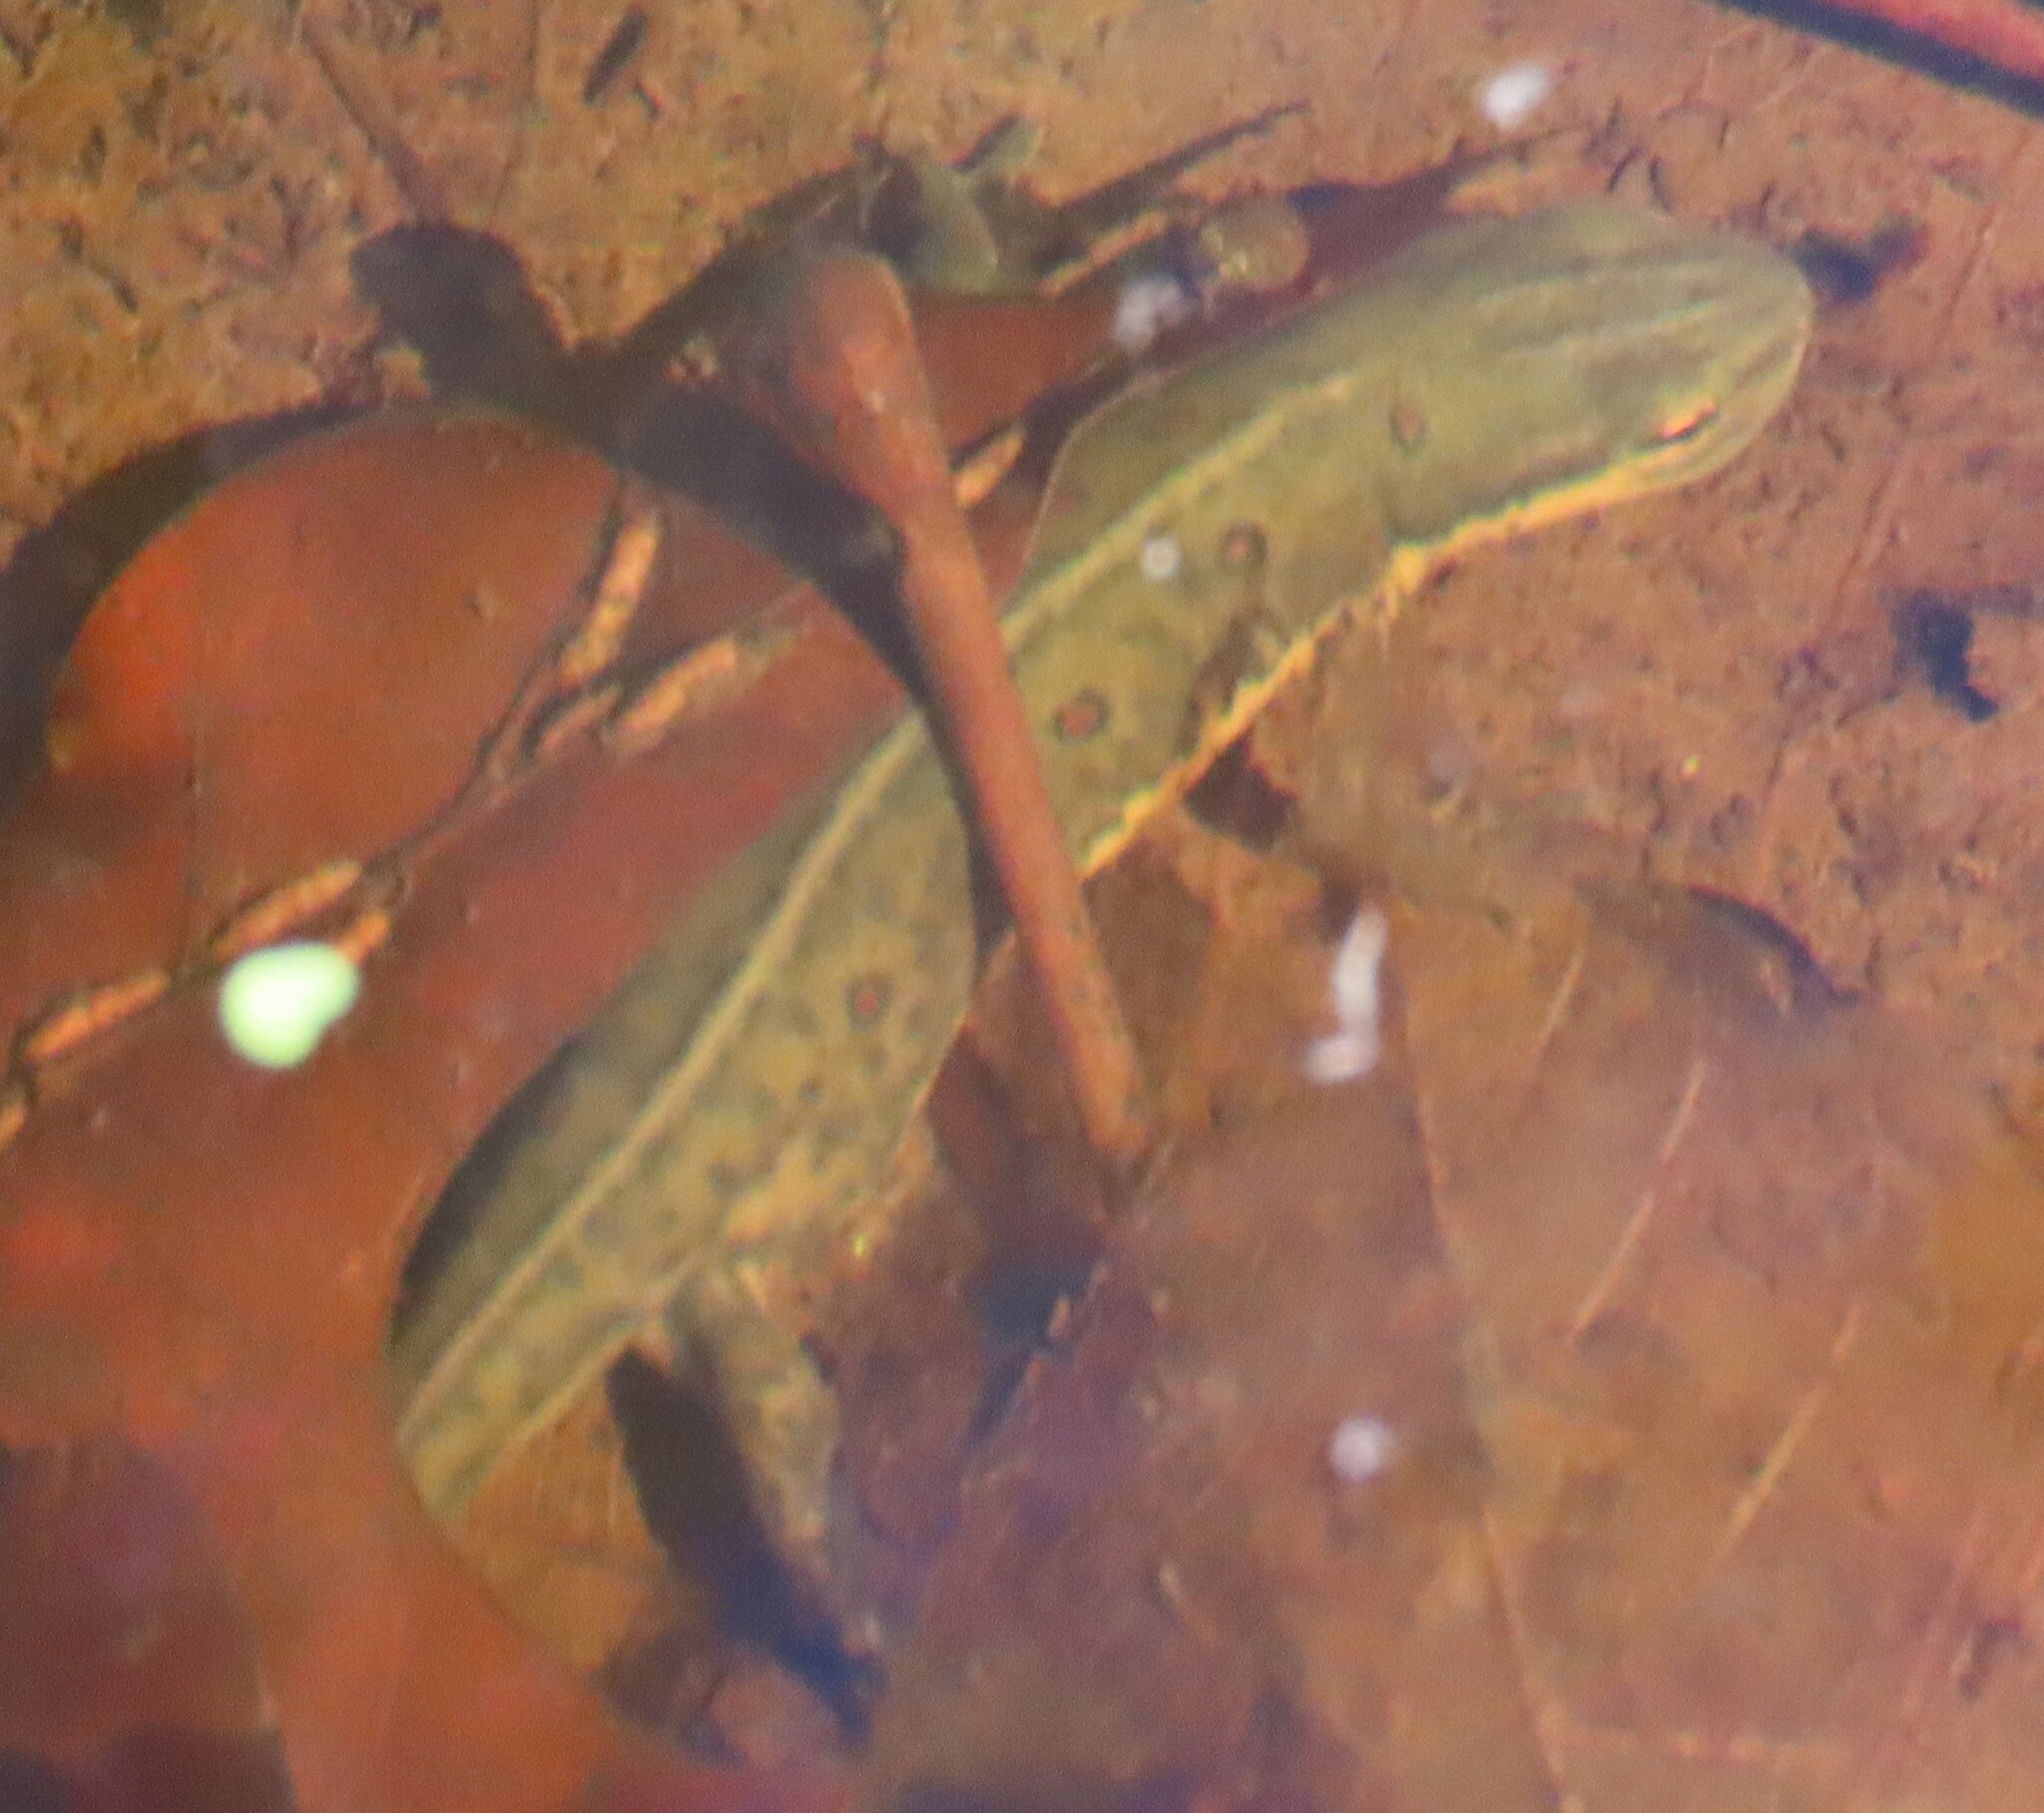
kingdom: Animalia
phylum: Chordata
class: Amphibia
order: Caudata
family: Salamandridae
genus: Notophthalmus
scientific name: Notophthalmus viridescens
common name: Eastern newt
